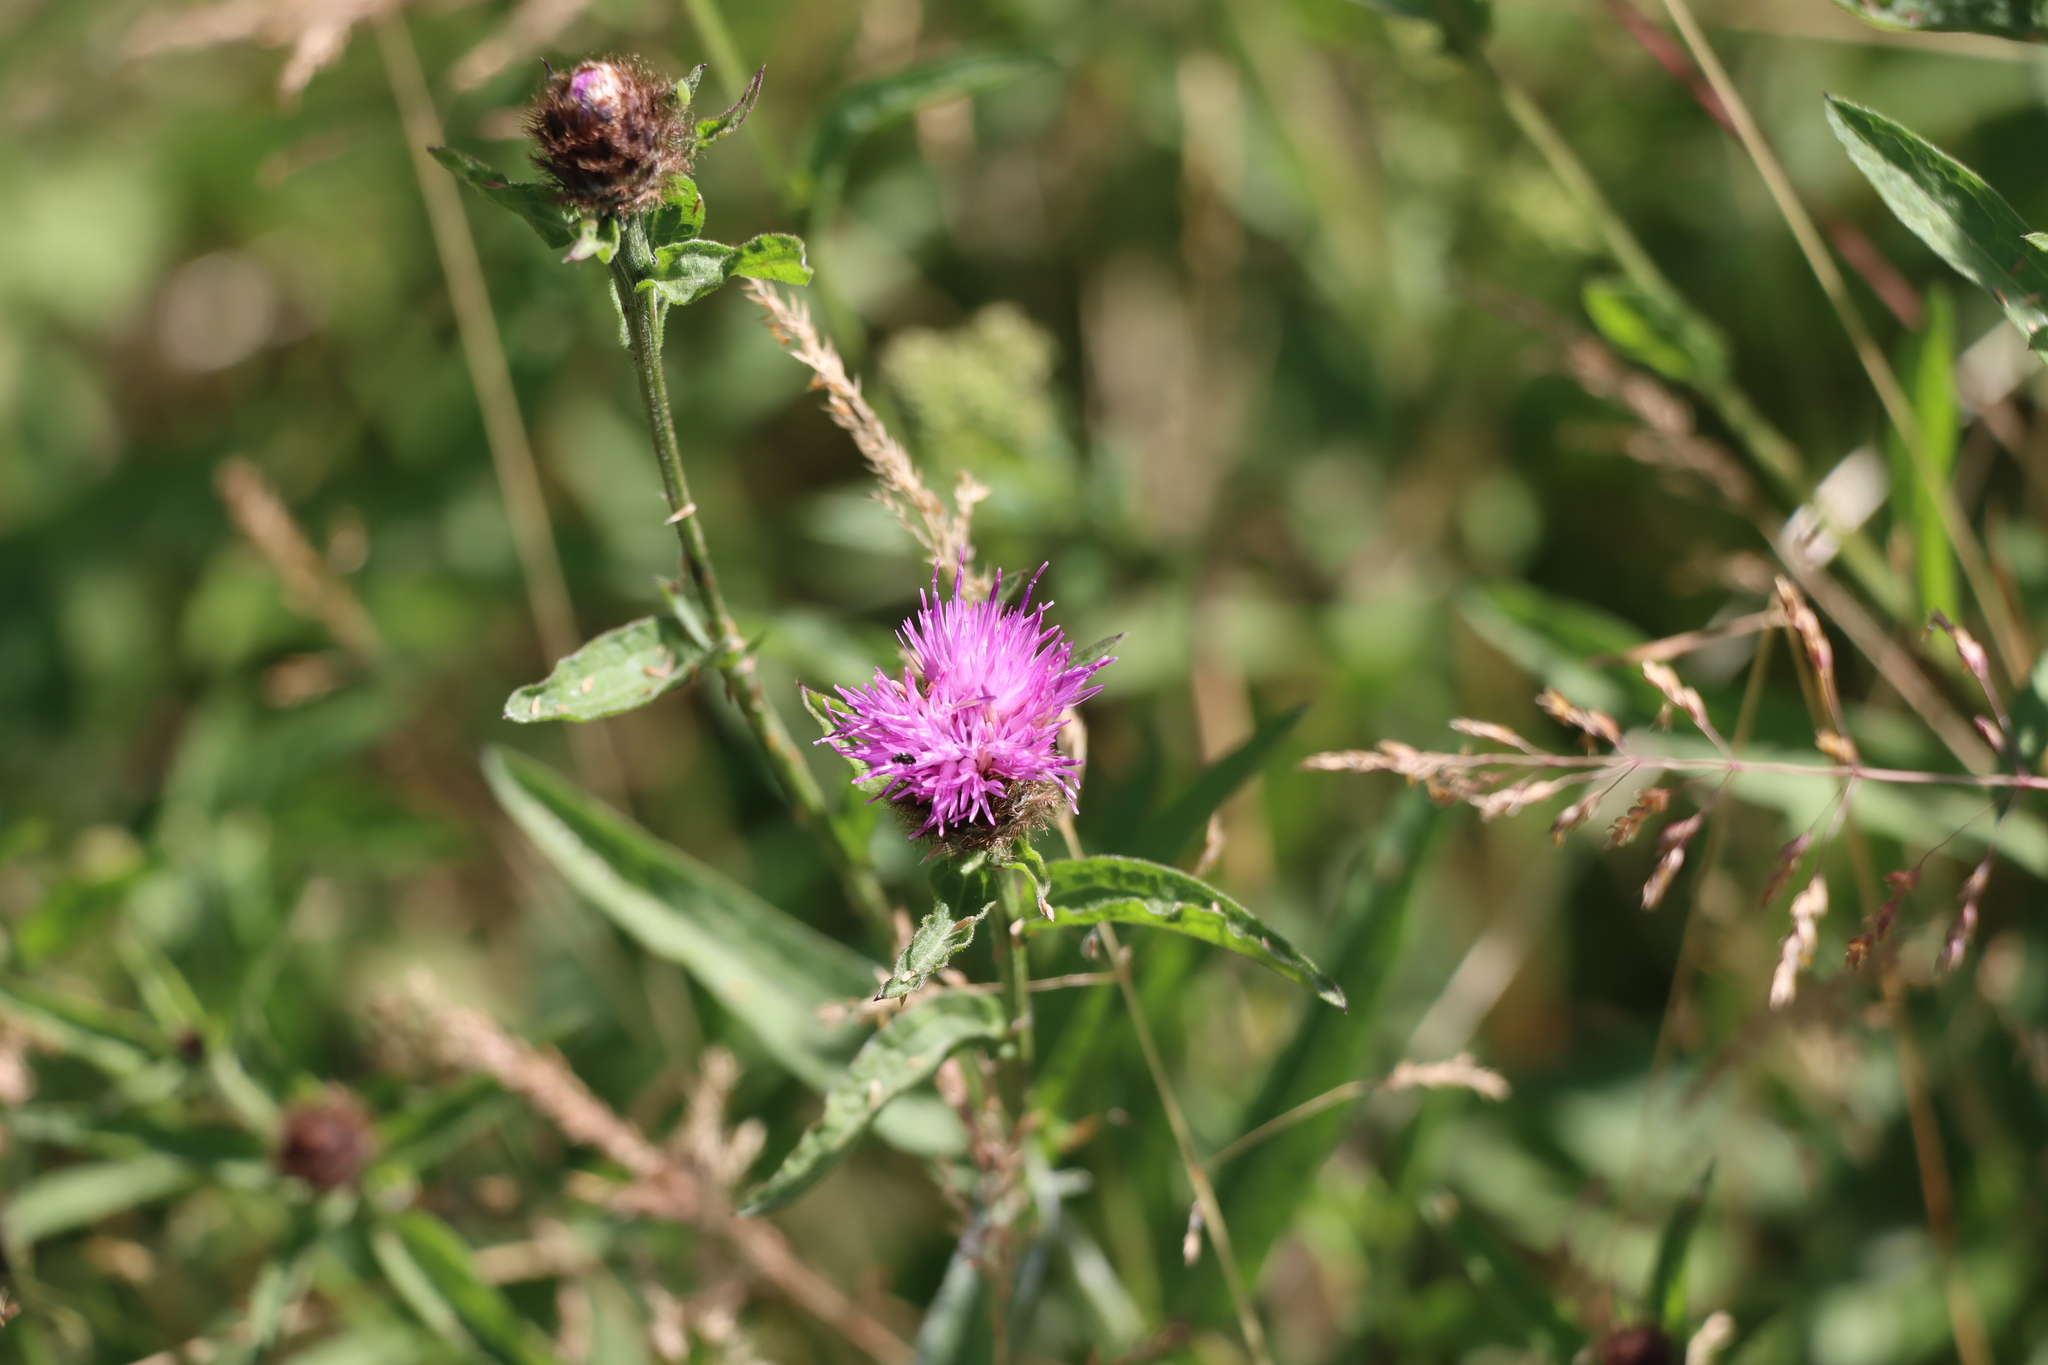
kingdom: Plantae
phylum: Tracheophyta
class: Magnoliopsida
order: Asterales
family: Asteraceae
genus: Centaurea
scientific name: Centaurea nigra
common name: Lesser knapweed
